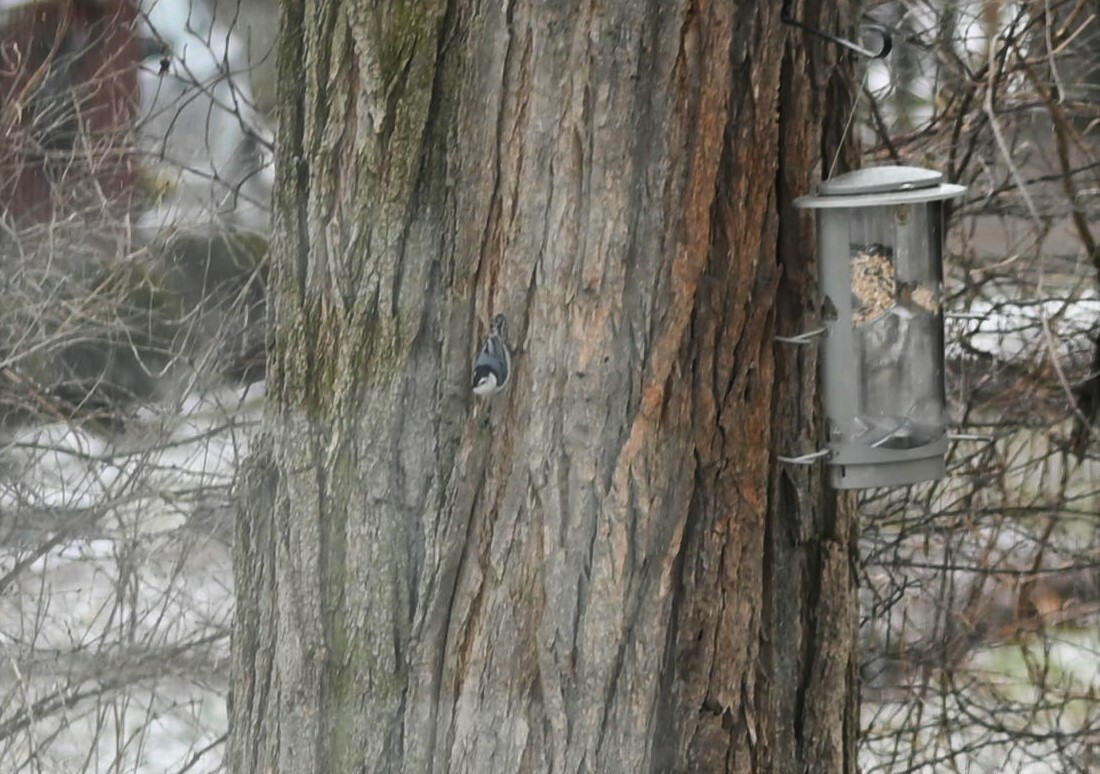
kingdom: Animalia
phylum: Chordata
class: Aves
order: Passeriformes
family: Sittidae
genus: Sitta
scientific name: Sitta carolinensis
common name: White-breasted nuthatch
